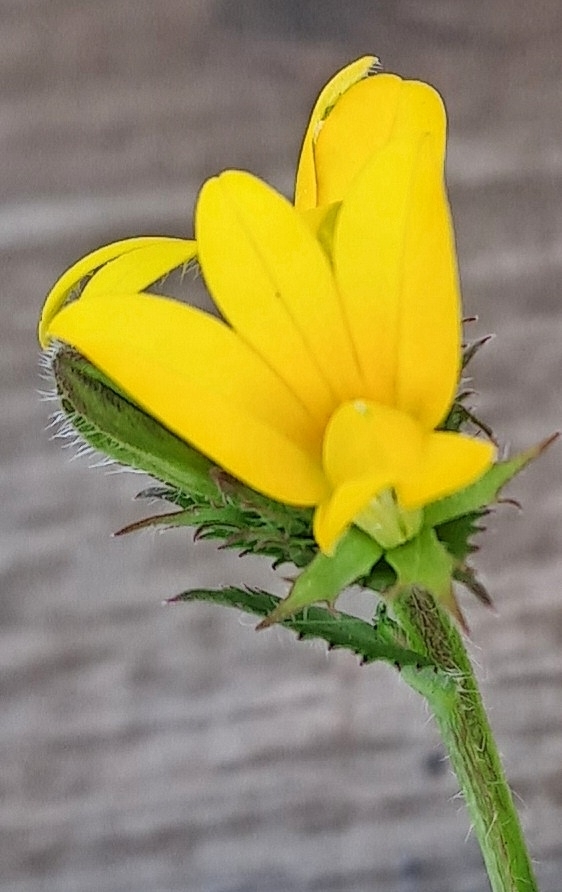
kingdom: Plantae
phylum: Tracheophyta
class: Magnoliopsida
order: Asterales
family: Campanulaceae
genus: Monopsis
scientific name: Monopsis lutea
